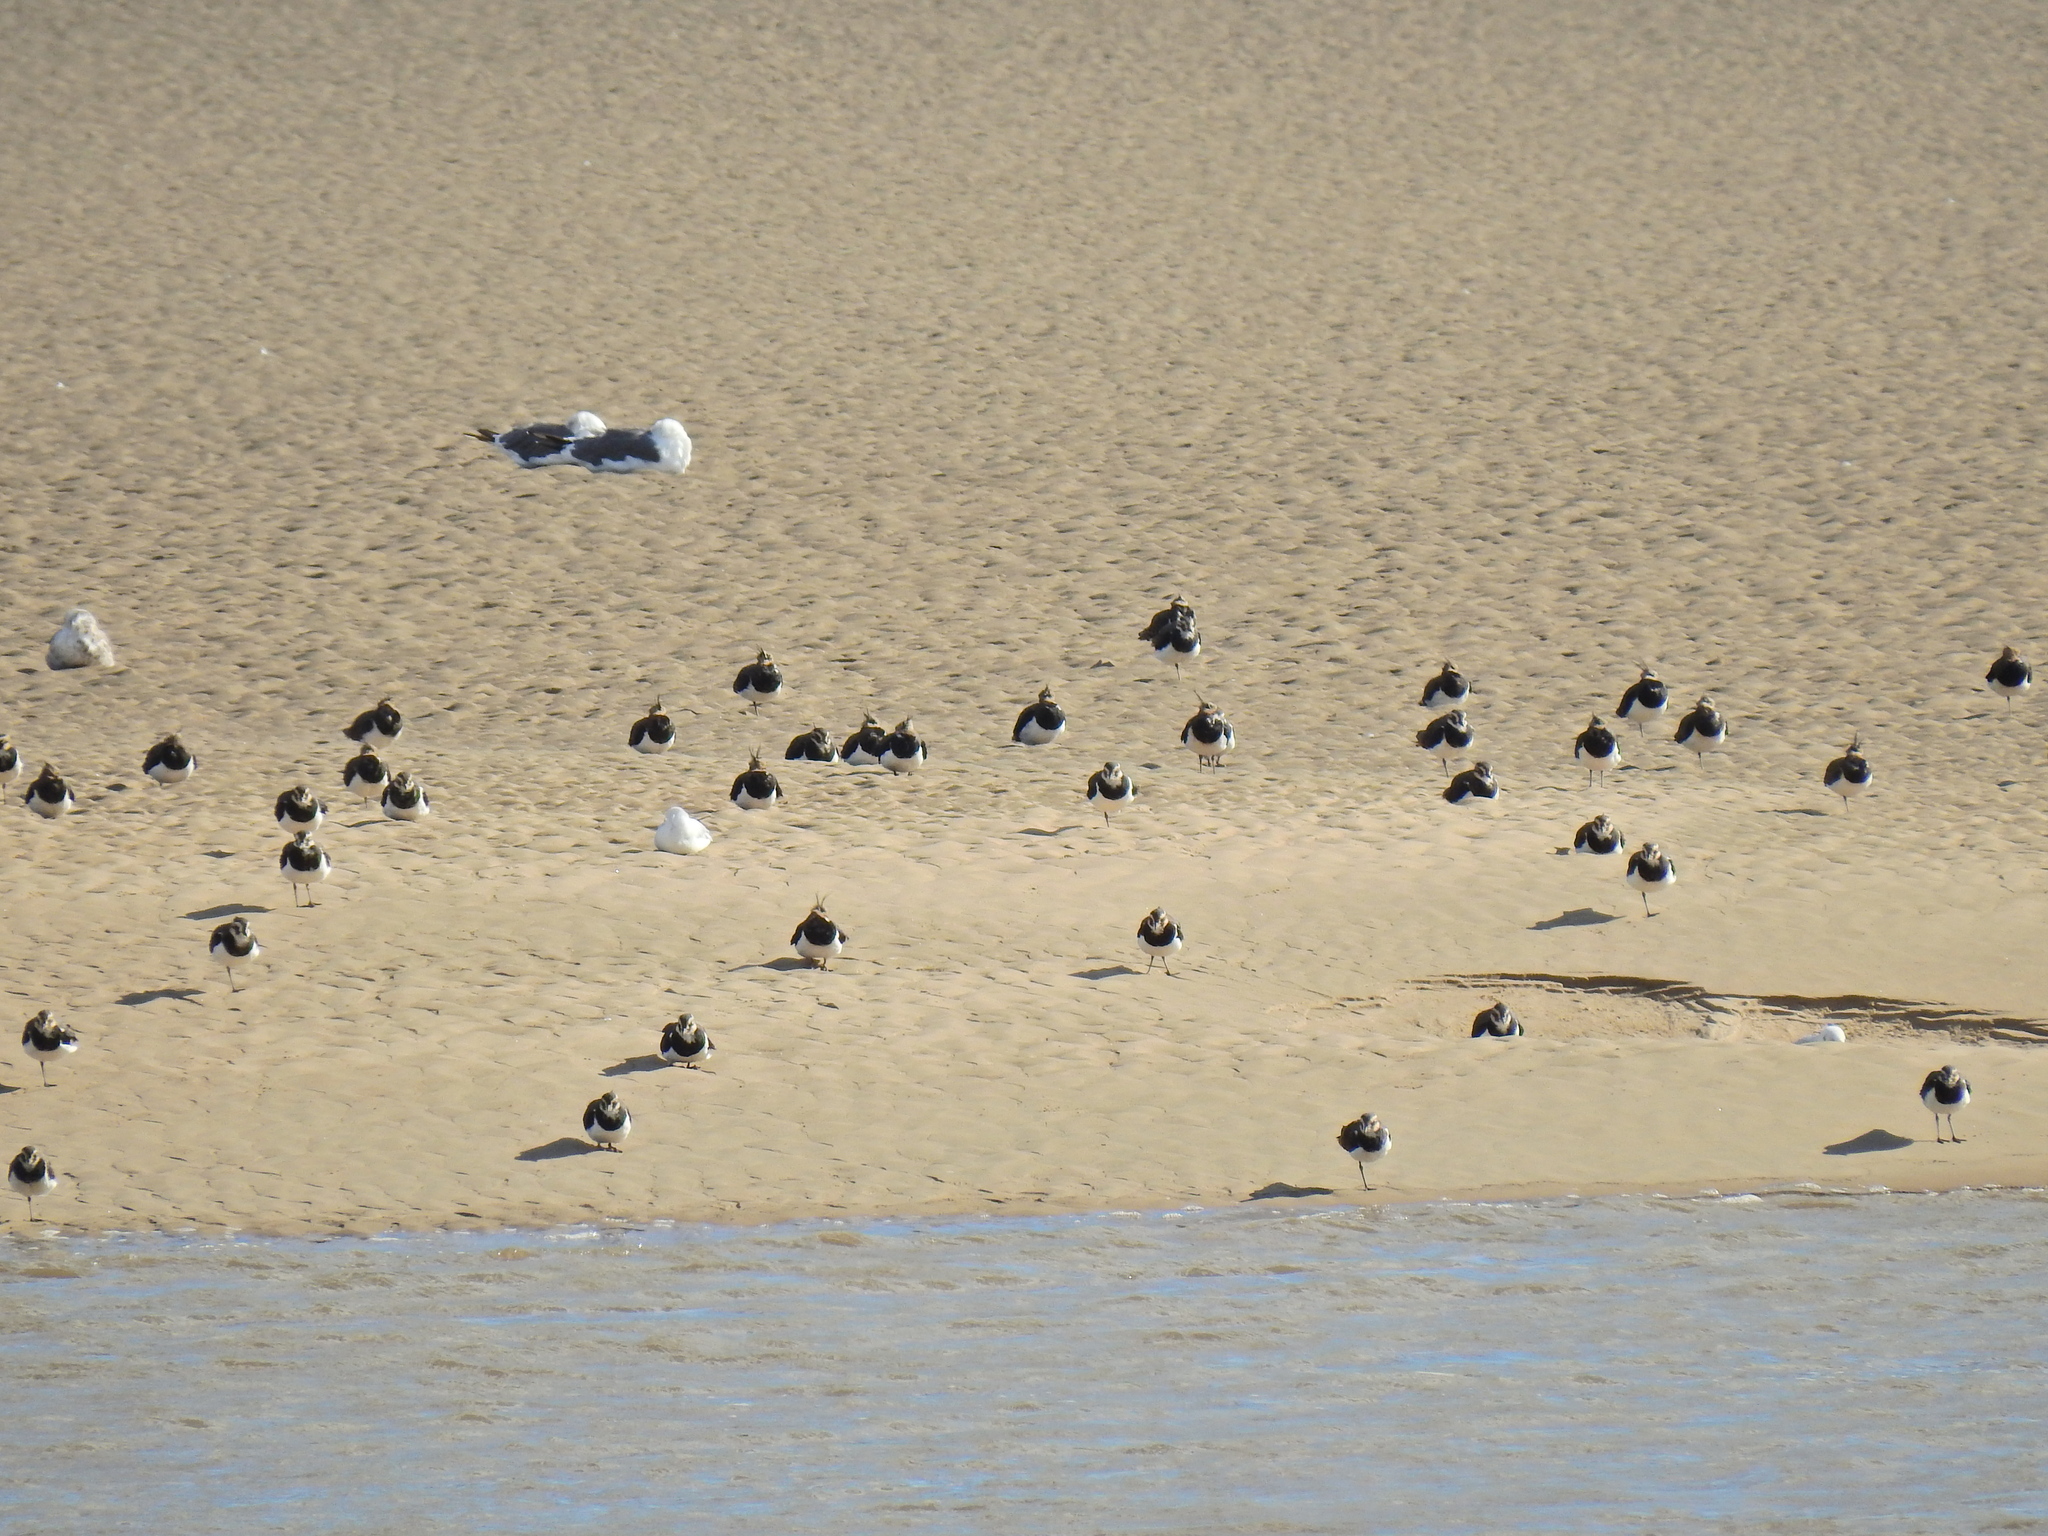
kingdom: Animalia
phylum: Chordata
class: Aves
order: Charadriiformes
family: Charadriidae
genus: Vanellus
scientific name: Vanellus vanellus
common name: Northern lapwing
